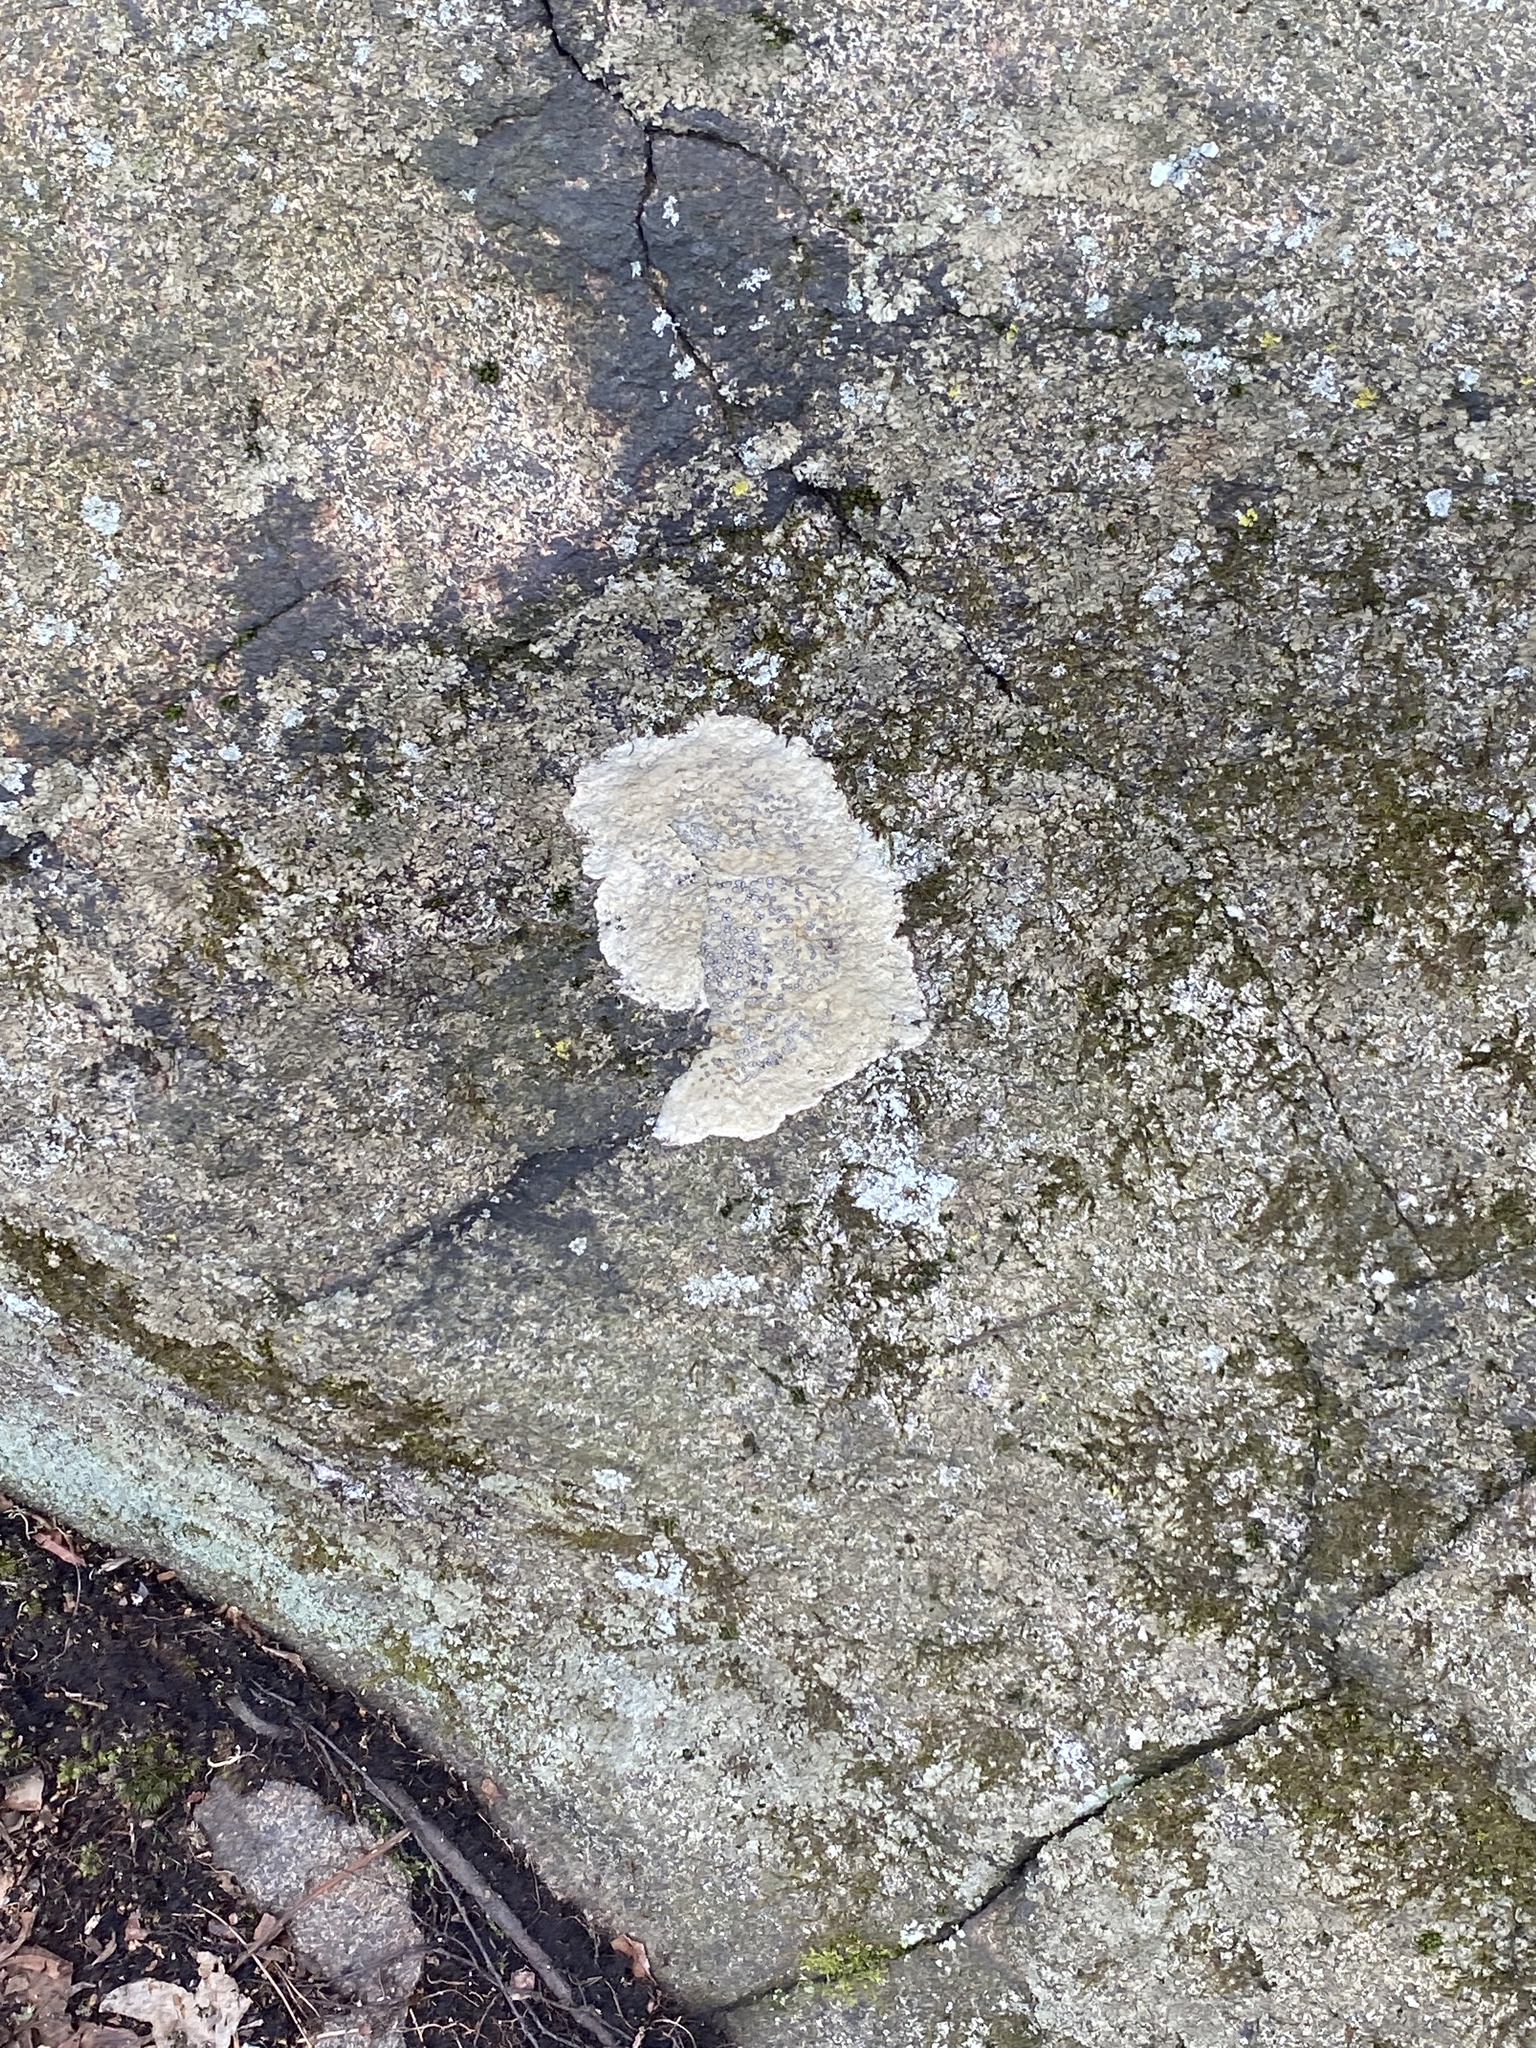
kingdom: Fungi
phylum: Ascomycota
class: Lecanoromycetes
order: Lecideales
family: Lecideaceae
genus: Porpidia
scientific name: Porpidia albocaerulescens
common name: Smokey-eyed boulder lichen
